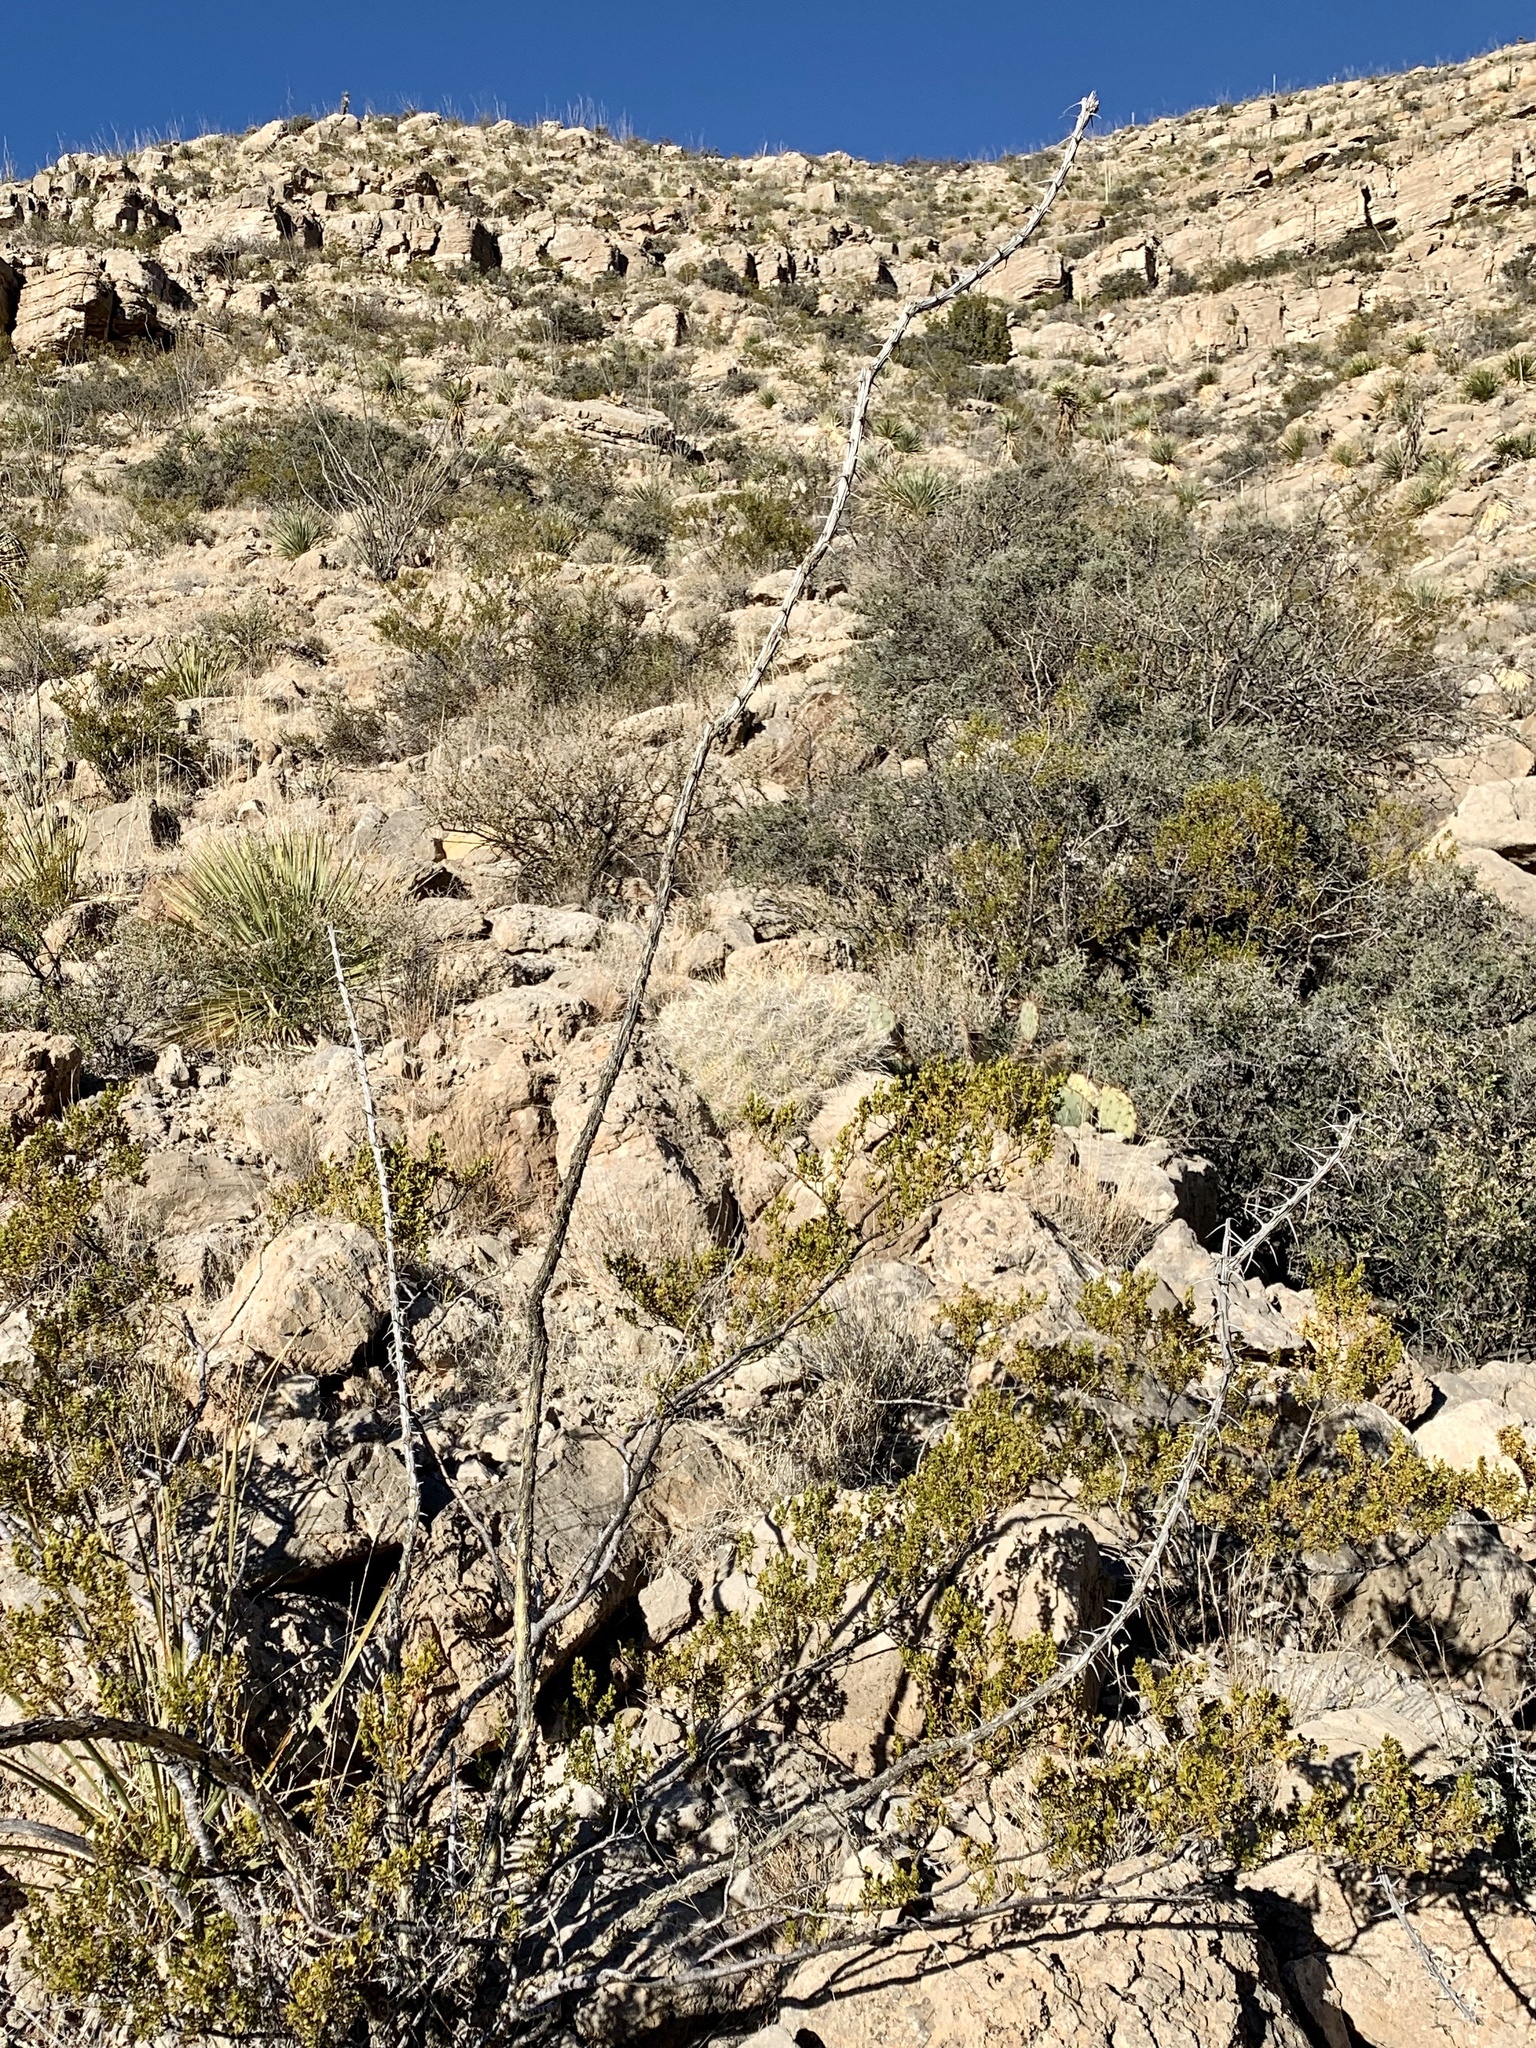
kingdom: Plantae
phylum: Tracheophyta
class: Magnoliopsida
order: Ericales
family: Fouquieriaceae
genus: Fouquieria
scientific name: Fouquieria splendens
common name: Vine-cactus
